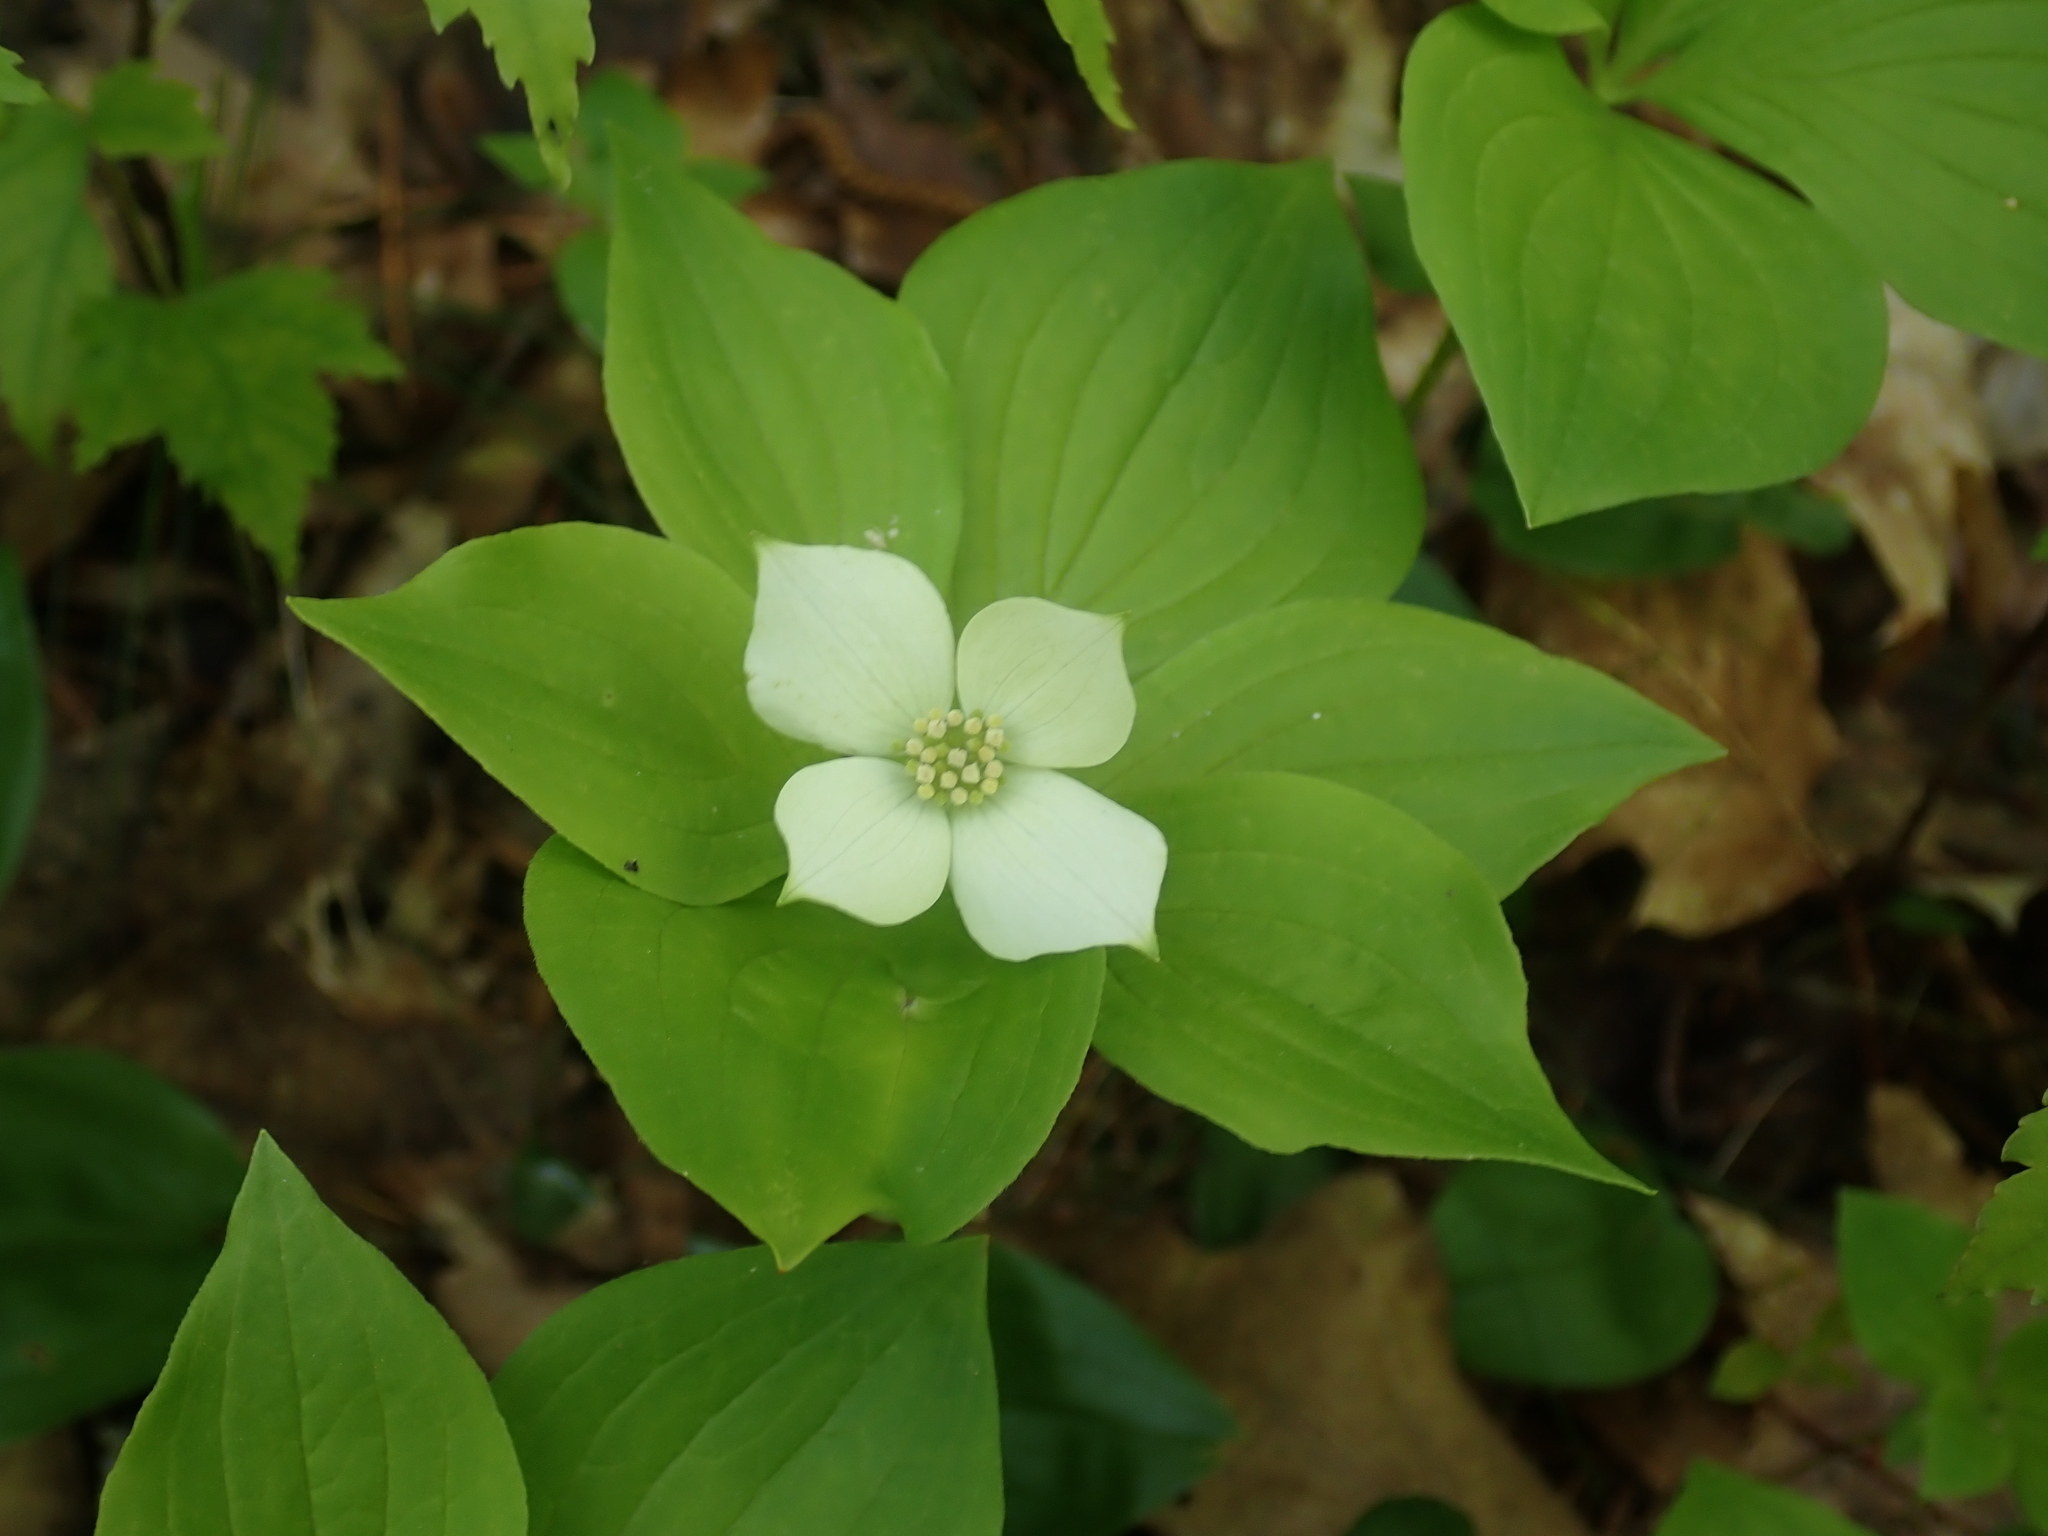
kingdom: Plantae
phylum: Tracheophyta
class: Magnoliopsida
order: Cornales
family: Cornaceae
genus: Cornus
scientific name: Cornus canadensis
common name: Creeping dogwood
